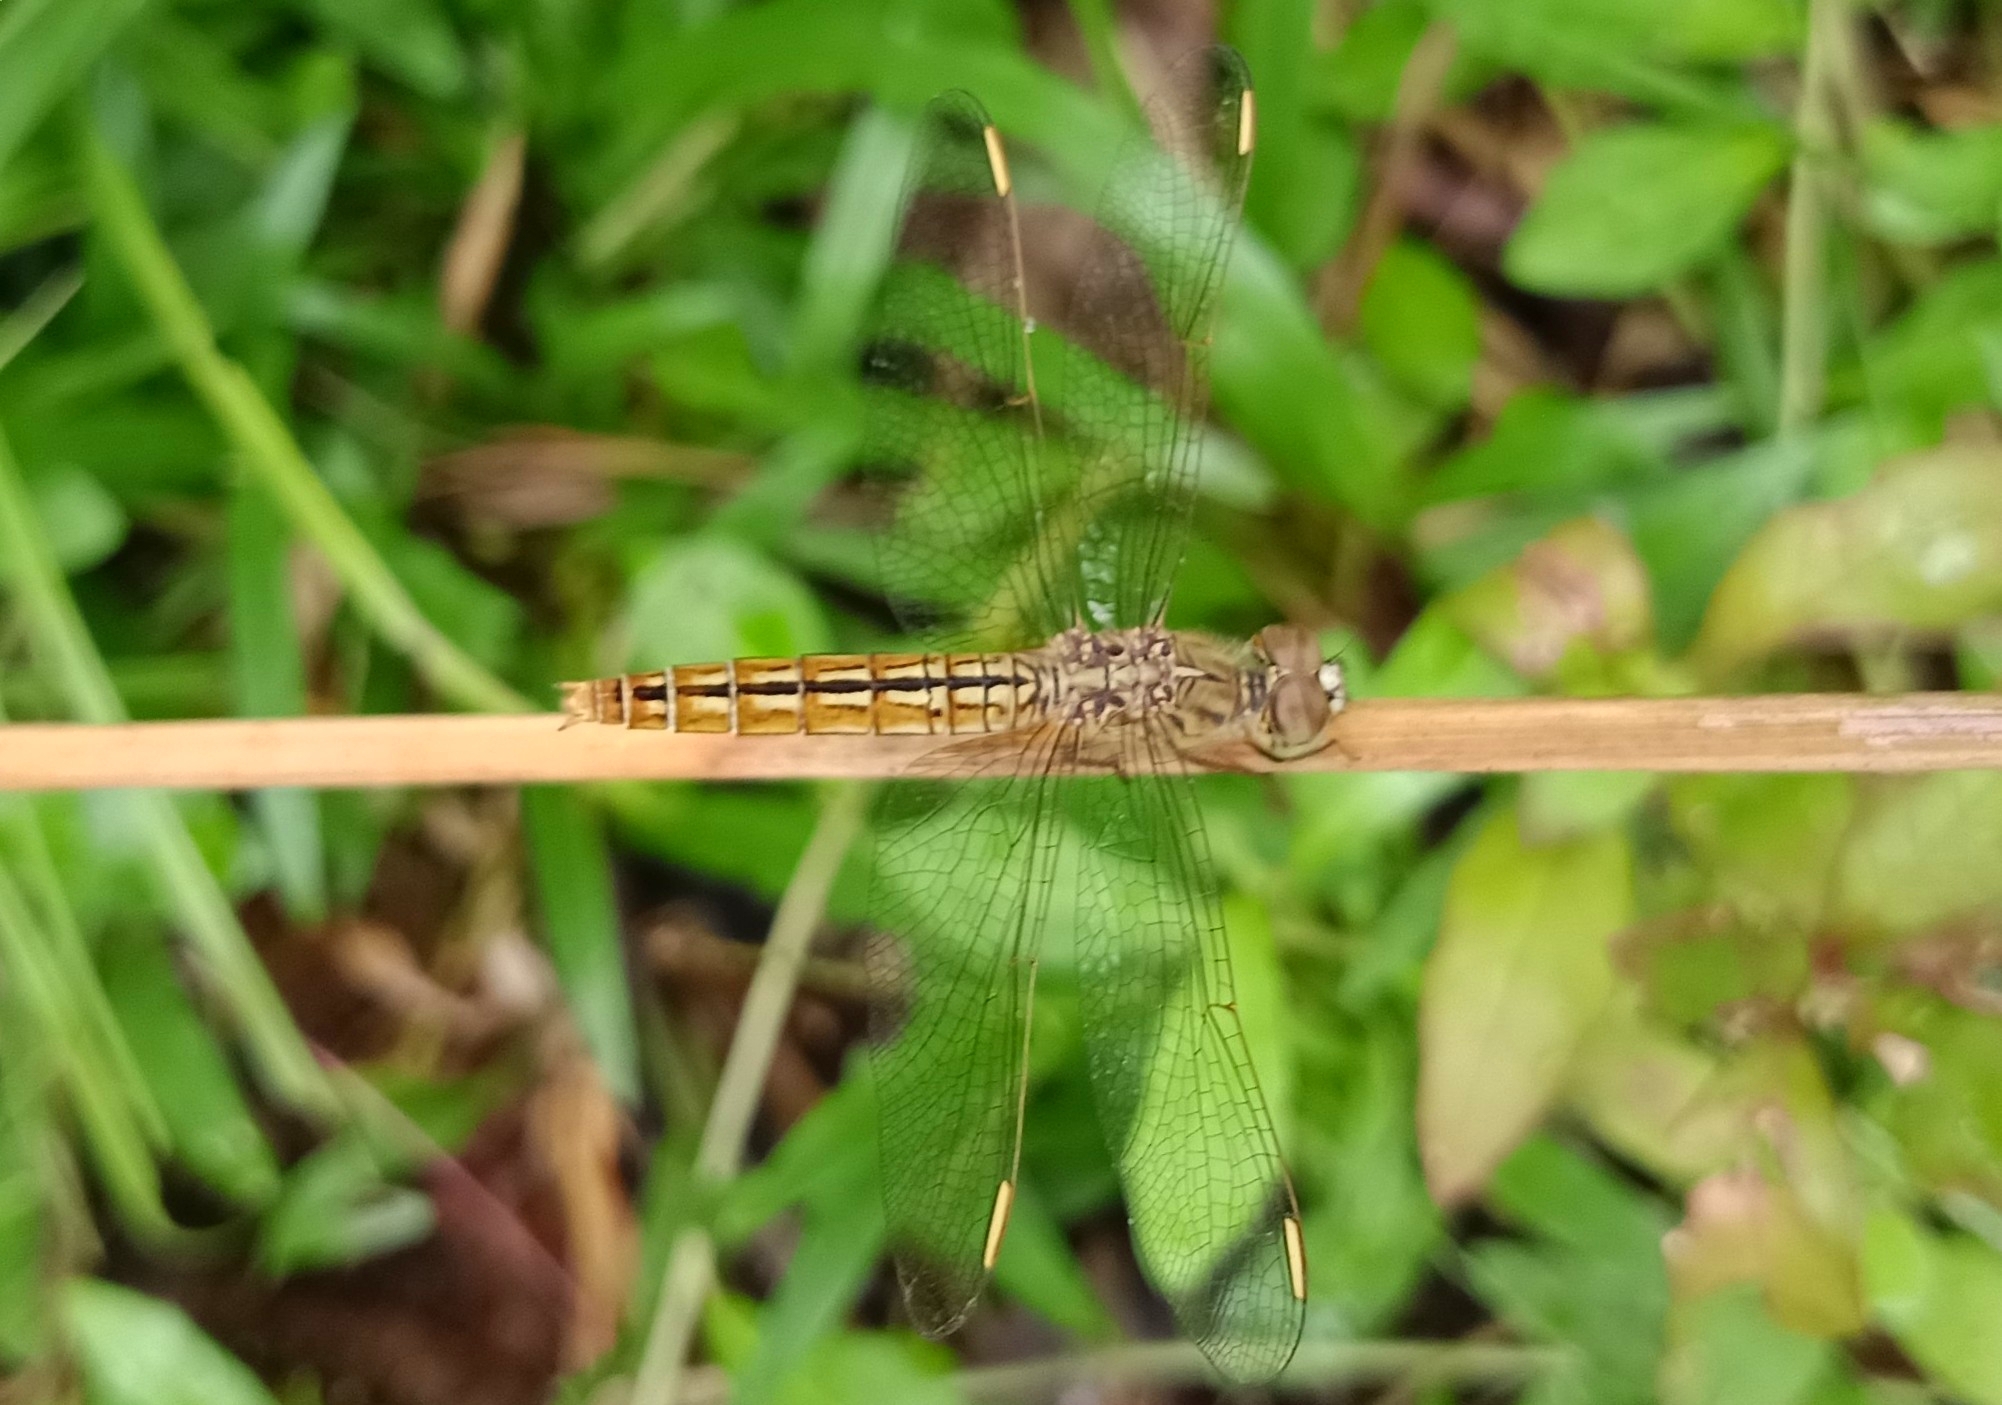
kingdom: Animalia
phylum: Arthropoda
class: Insecta
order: Odonata
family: Libellulidae
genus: Brachythemis
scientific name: Brachythemis contaminata
